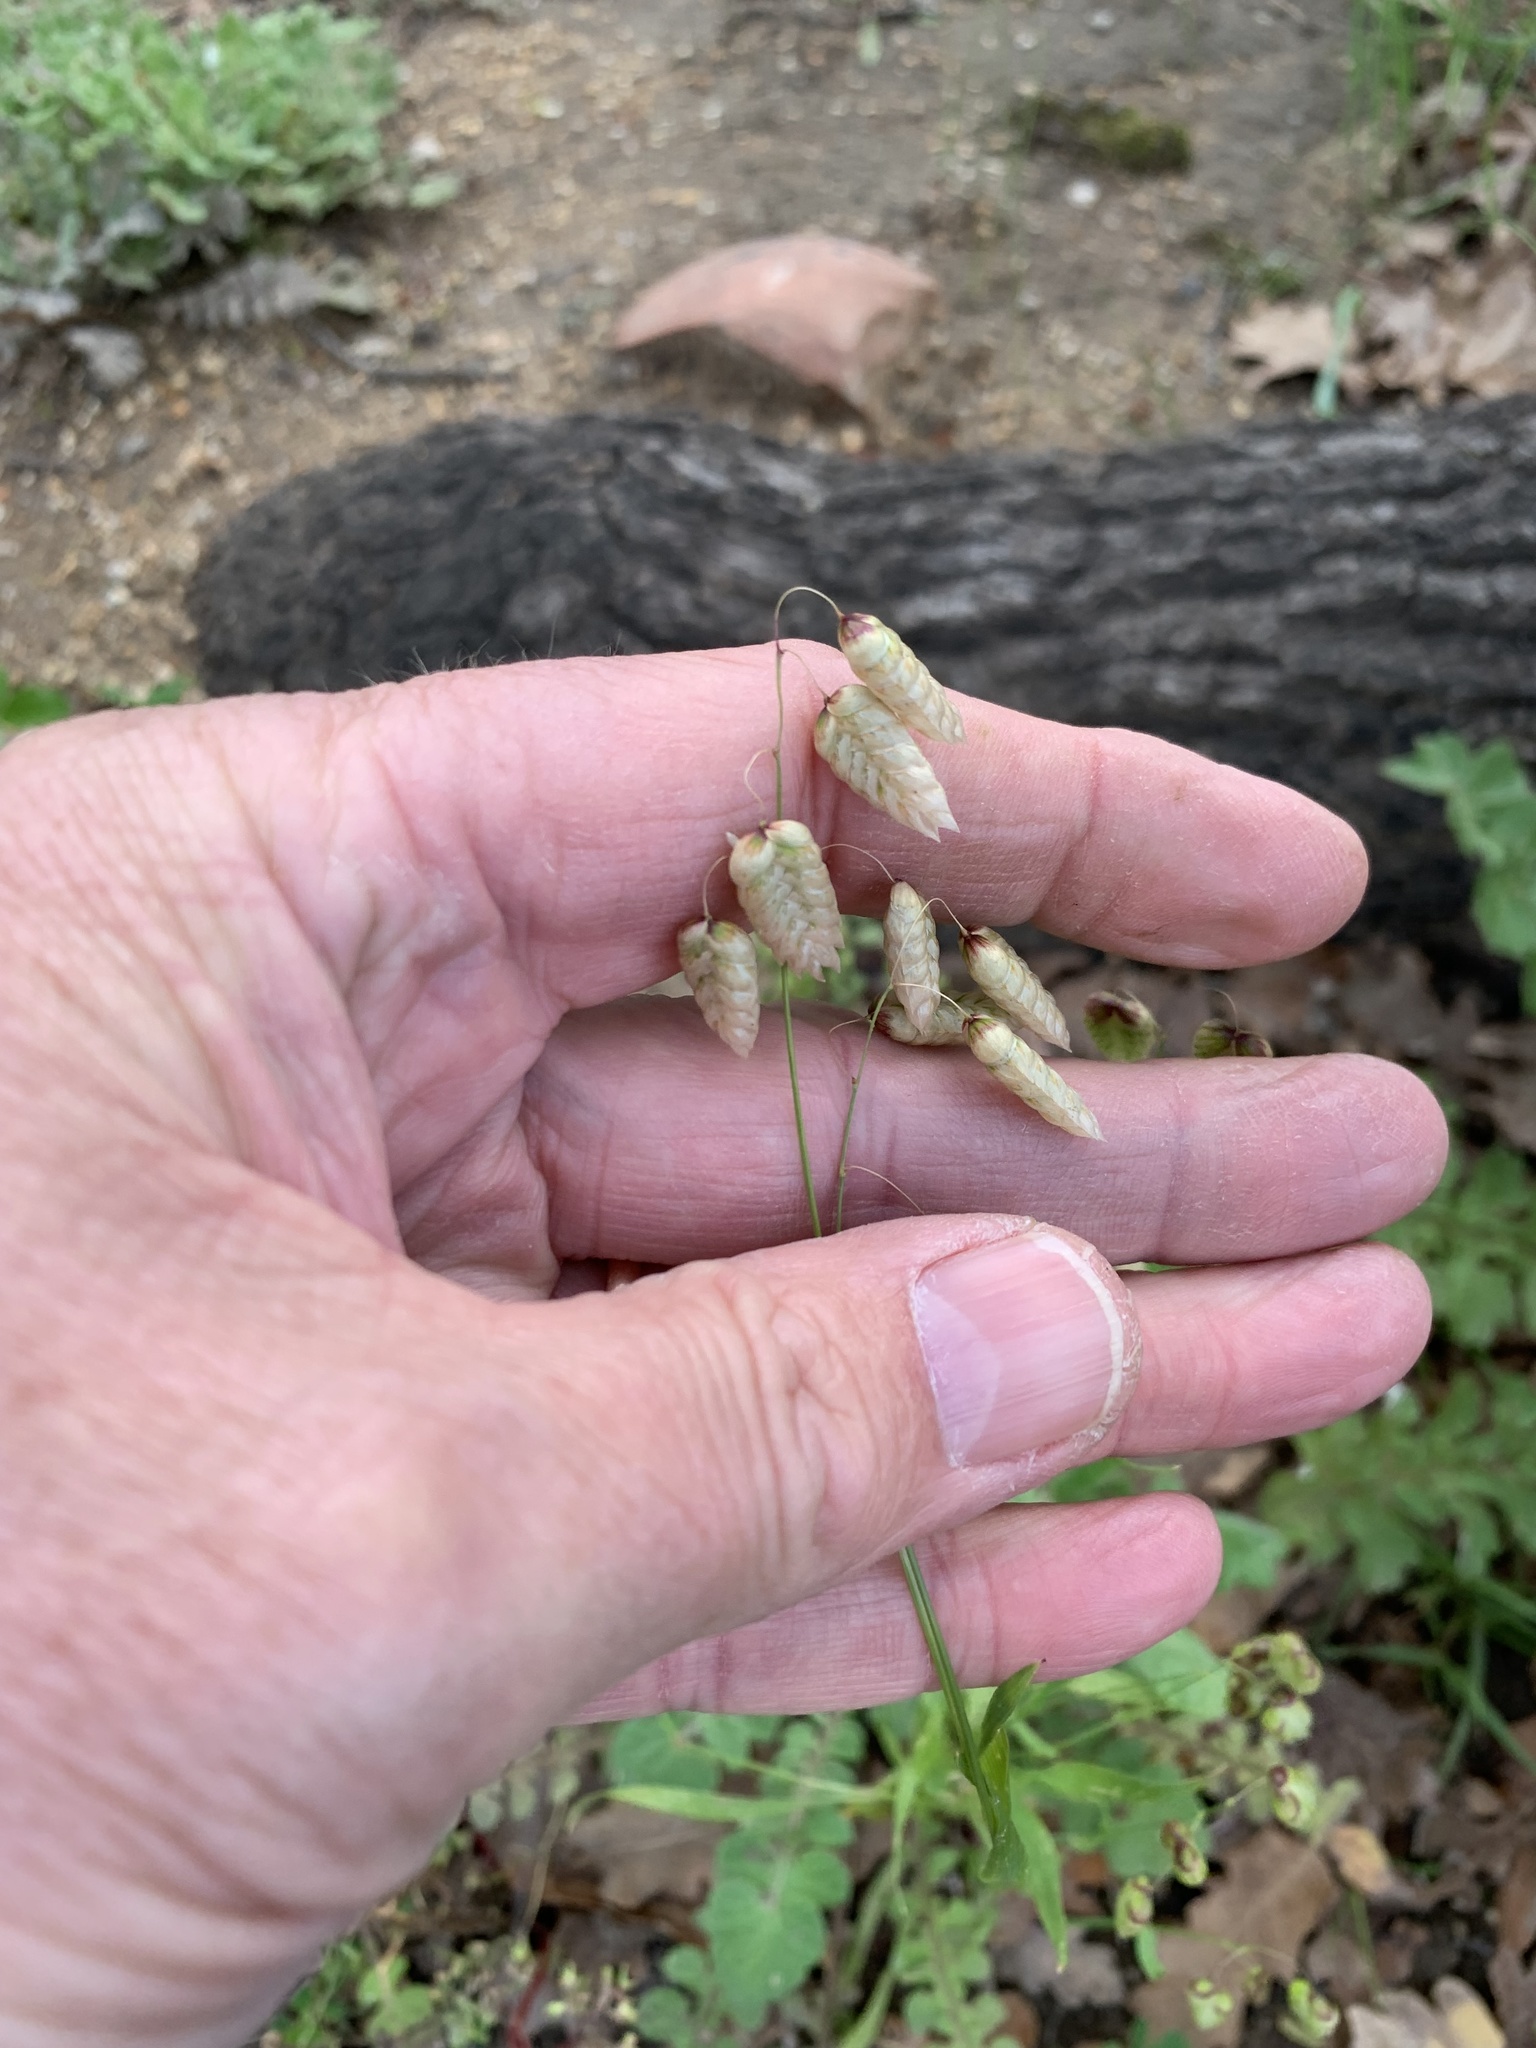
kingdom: Plantae
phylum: Tracheophyta
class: Liliopsida
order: Poales
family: Poaceae
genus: Briza
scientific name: Briza maxima
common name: Big quakinggrass
